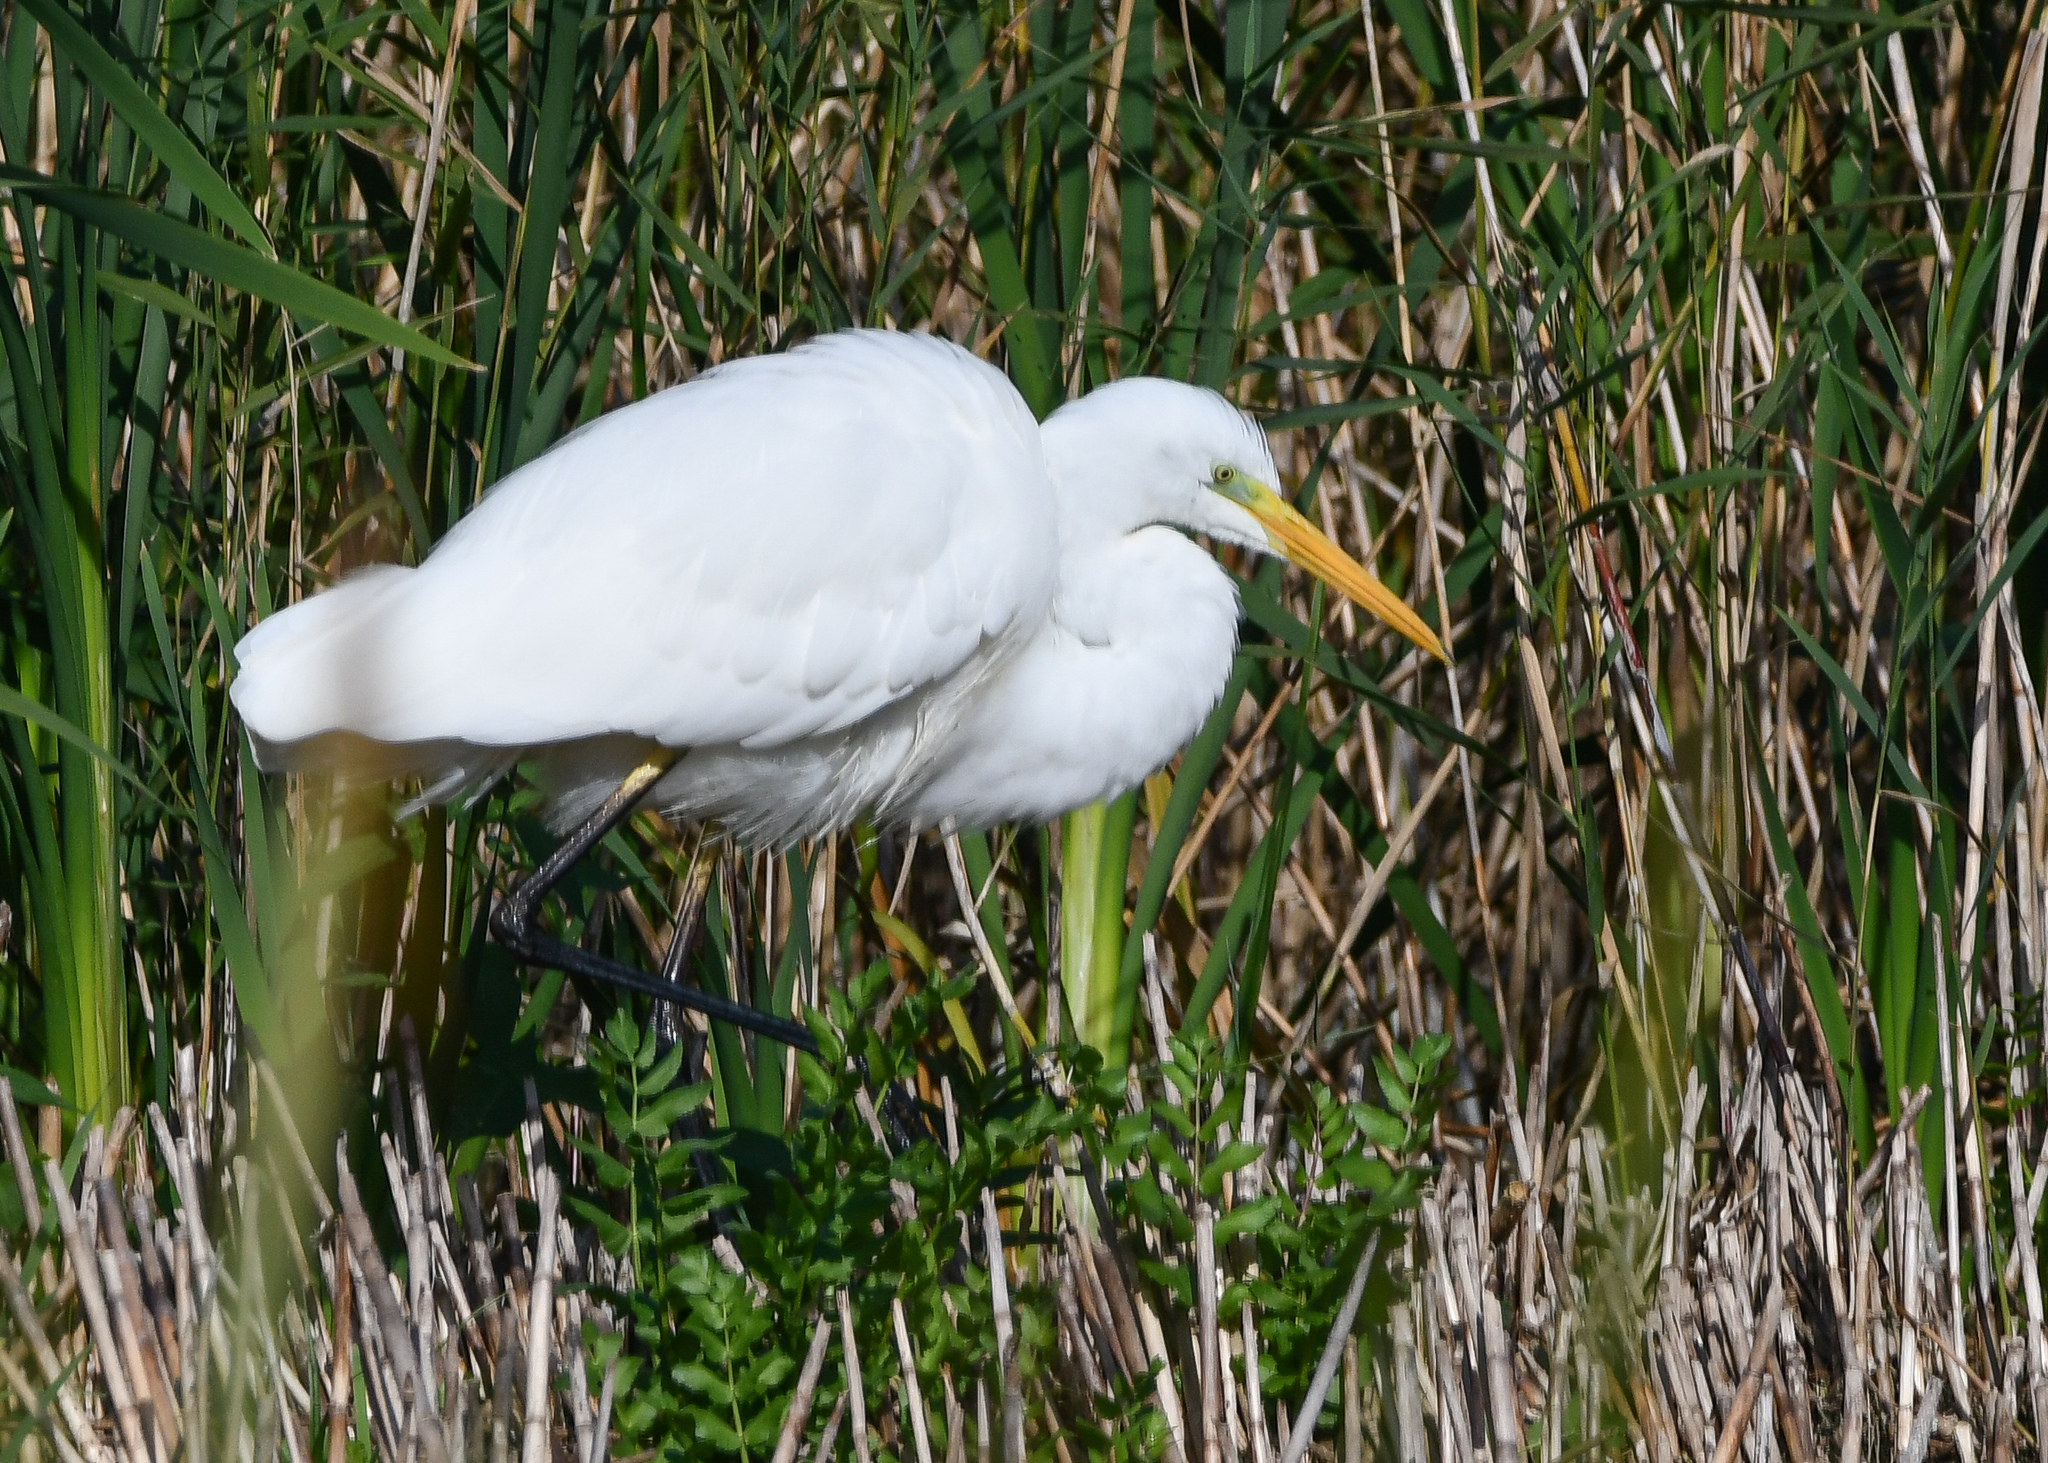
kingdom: Animalia
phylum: Chordata
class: Aves
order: Pelecaniformes
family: Ardeidae
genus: Ardea
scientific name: Ardea alba
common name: Great egret
